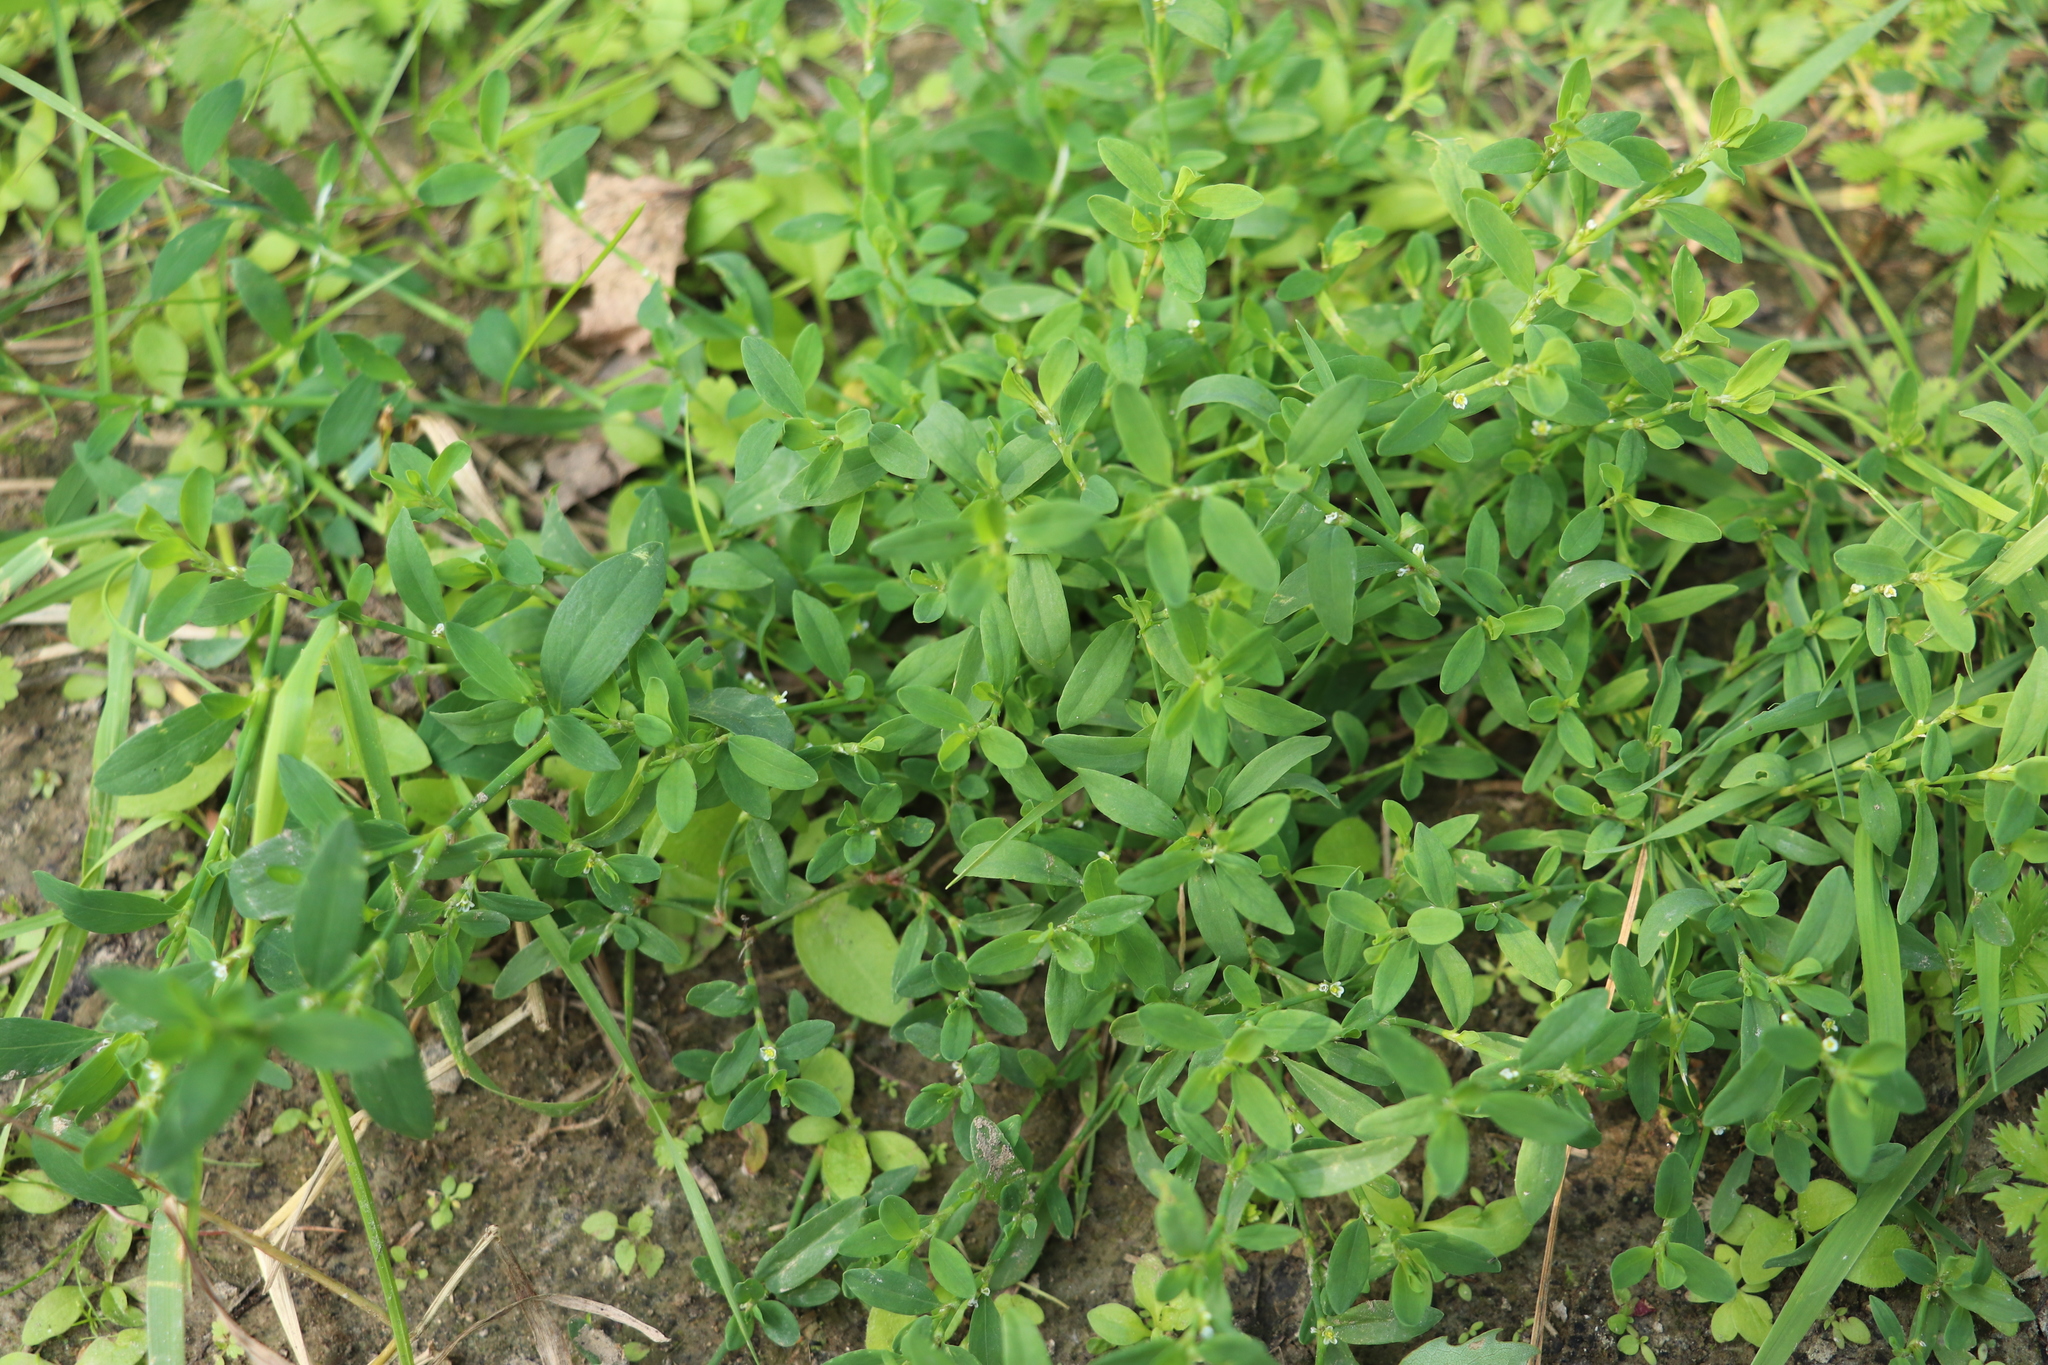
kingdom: Plantae
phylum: Tracheophyta
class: Magnoliopsida
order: Caryophyllales
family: Polygonaceae
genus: Polygonum
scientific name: Polygonum aviculare
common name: Prostrate knotweed
